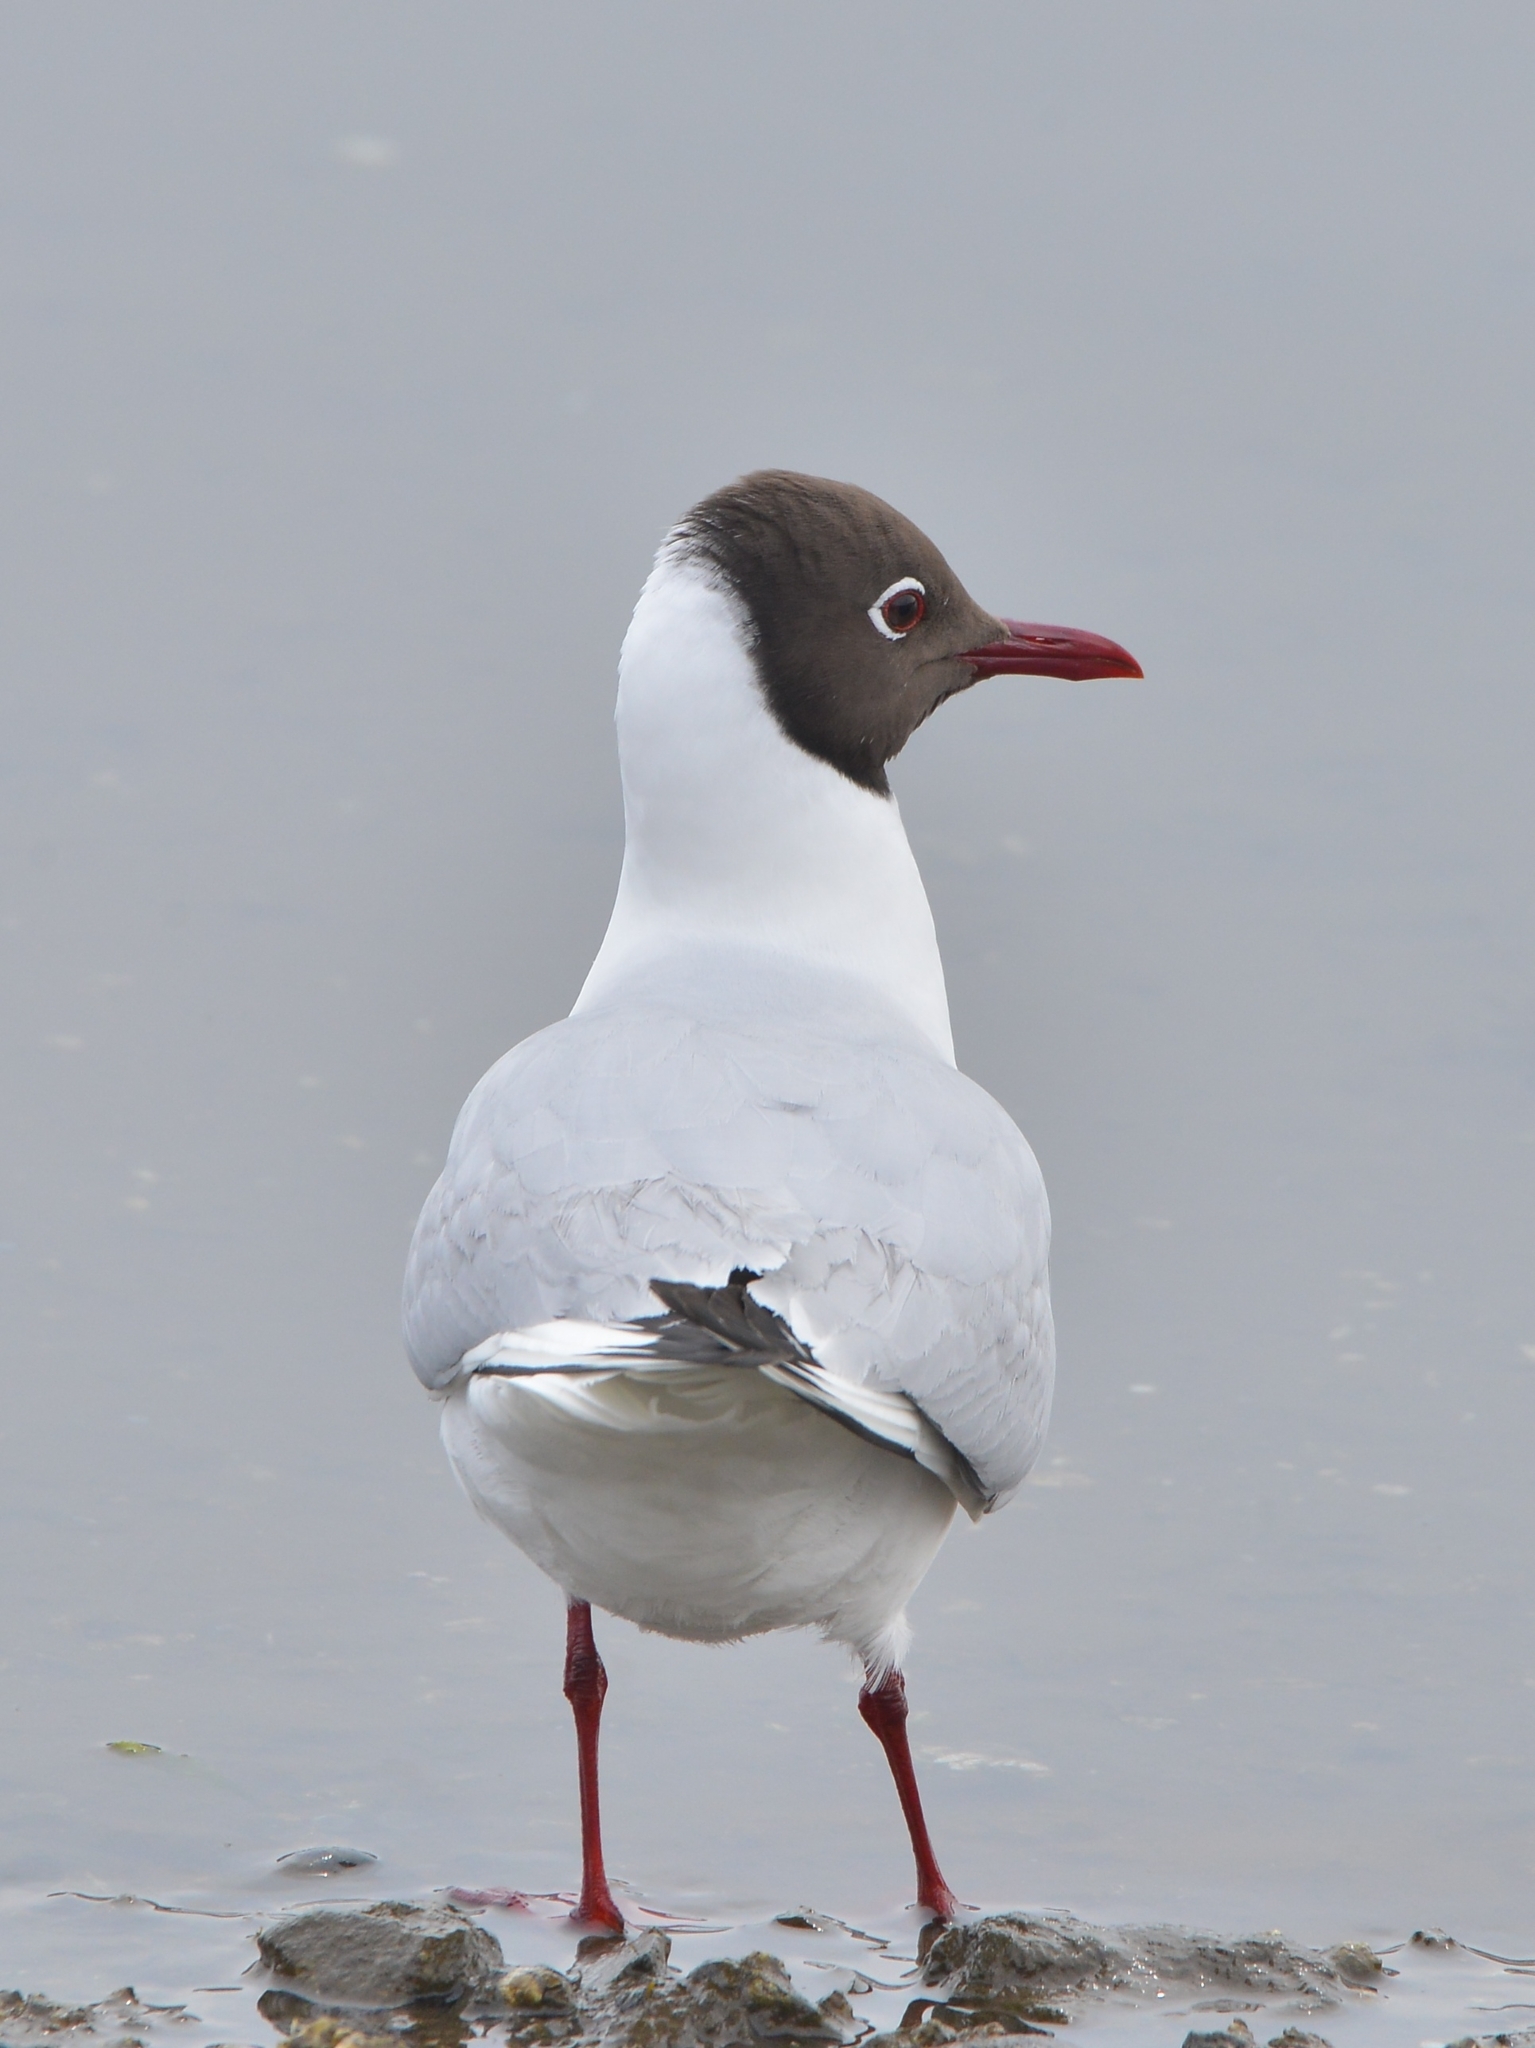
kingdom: Animalia
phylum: Chordata
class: Aves
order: Charadriiformes
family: Laridae
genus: Chroicocephalus
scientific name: Chroicocephalus ridibundus
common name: Black-headed gull
